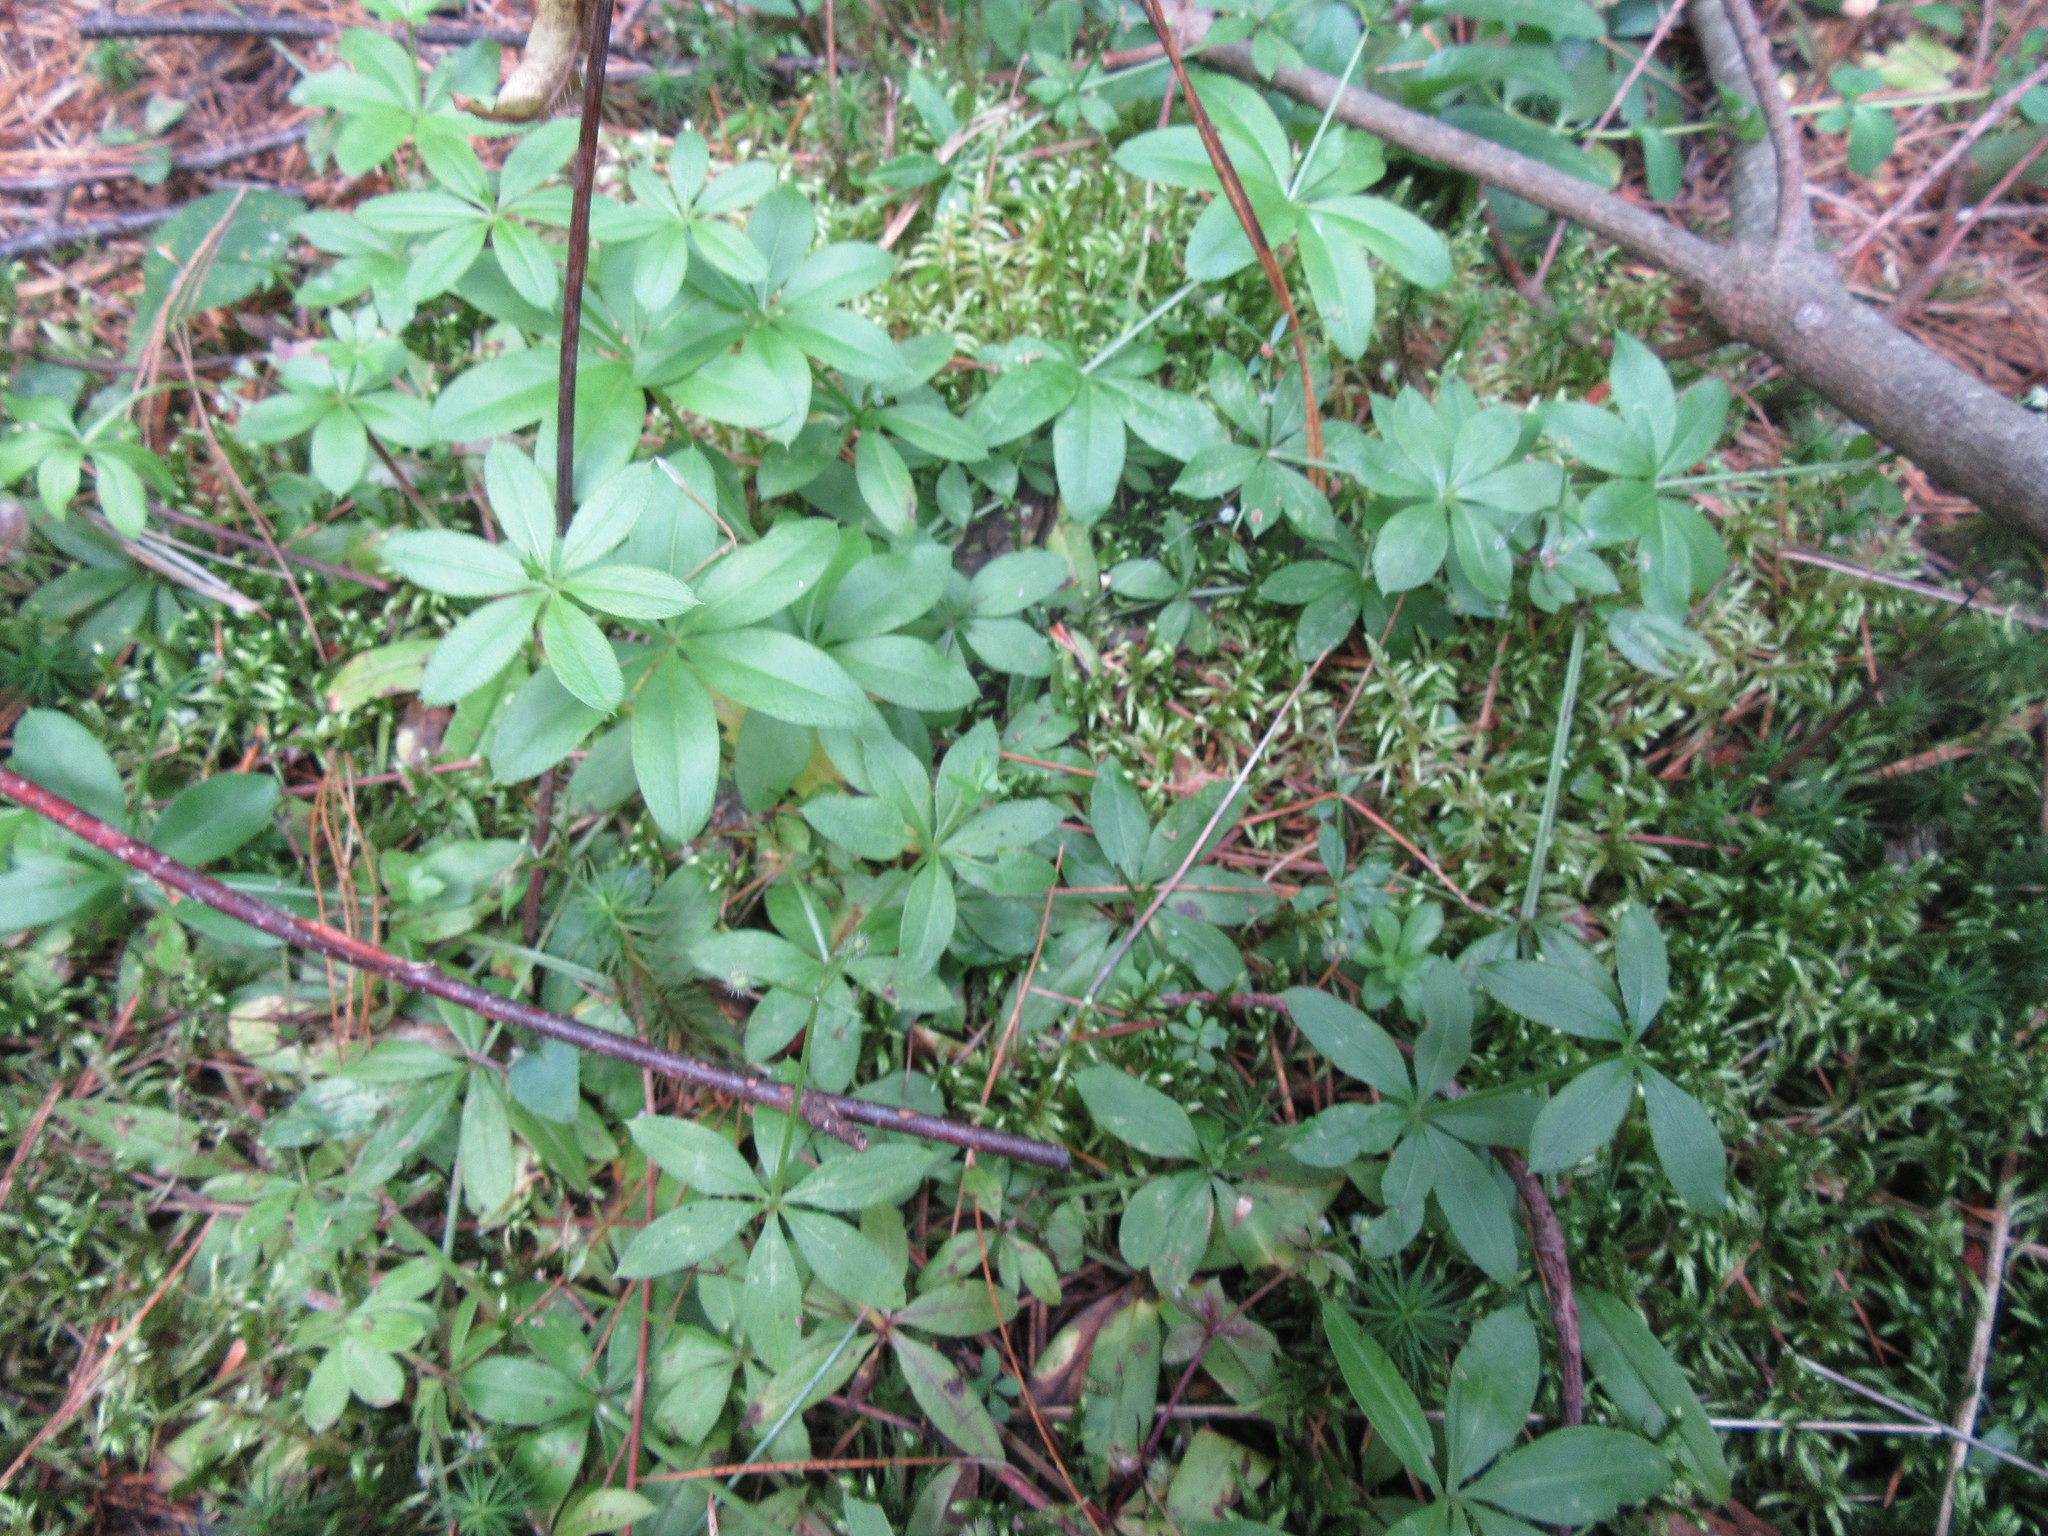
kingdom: Plantae
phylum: Tracheophyta
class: Magnoliopsida
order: Gentianales
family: Rubiaceae
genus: Galium
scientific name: Galium triflorum
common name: Fragrant bedstraw
